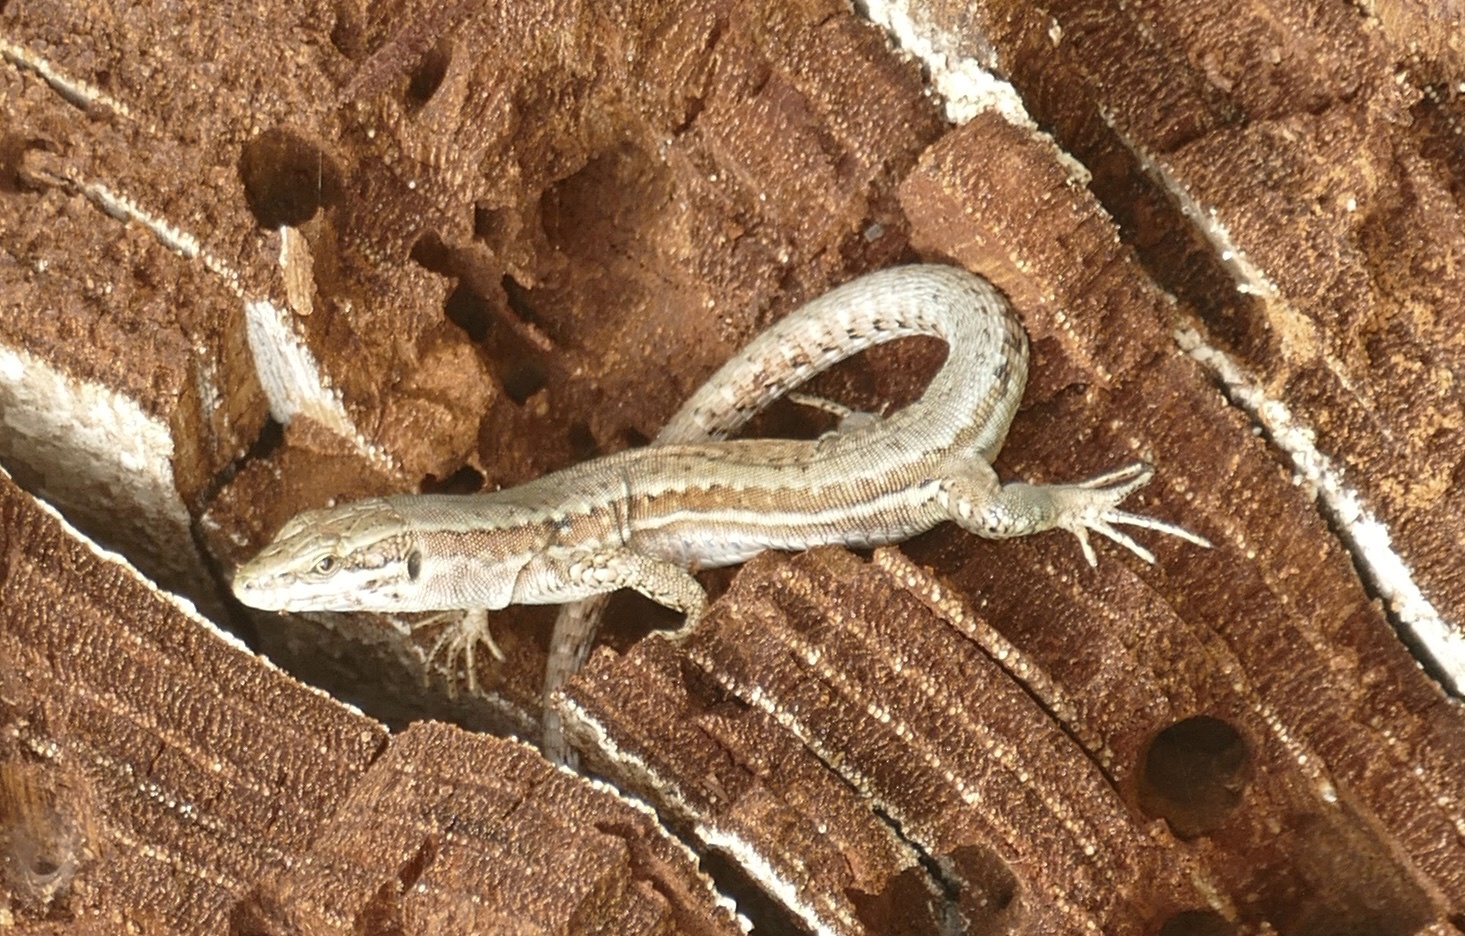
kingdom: Animalia
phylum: Chordata
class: Squamata
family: Lacertidae
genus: Podarcis
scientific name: Podarcis muralis
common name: Common wall lizard
